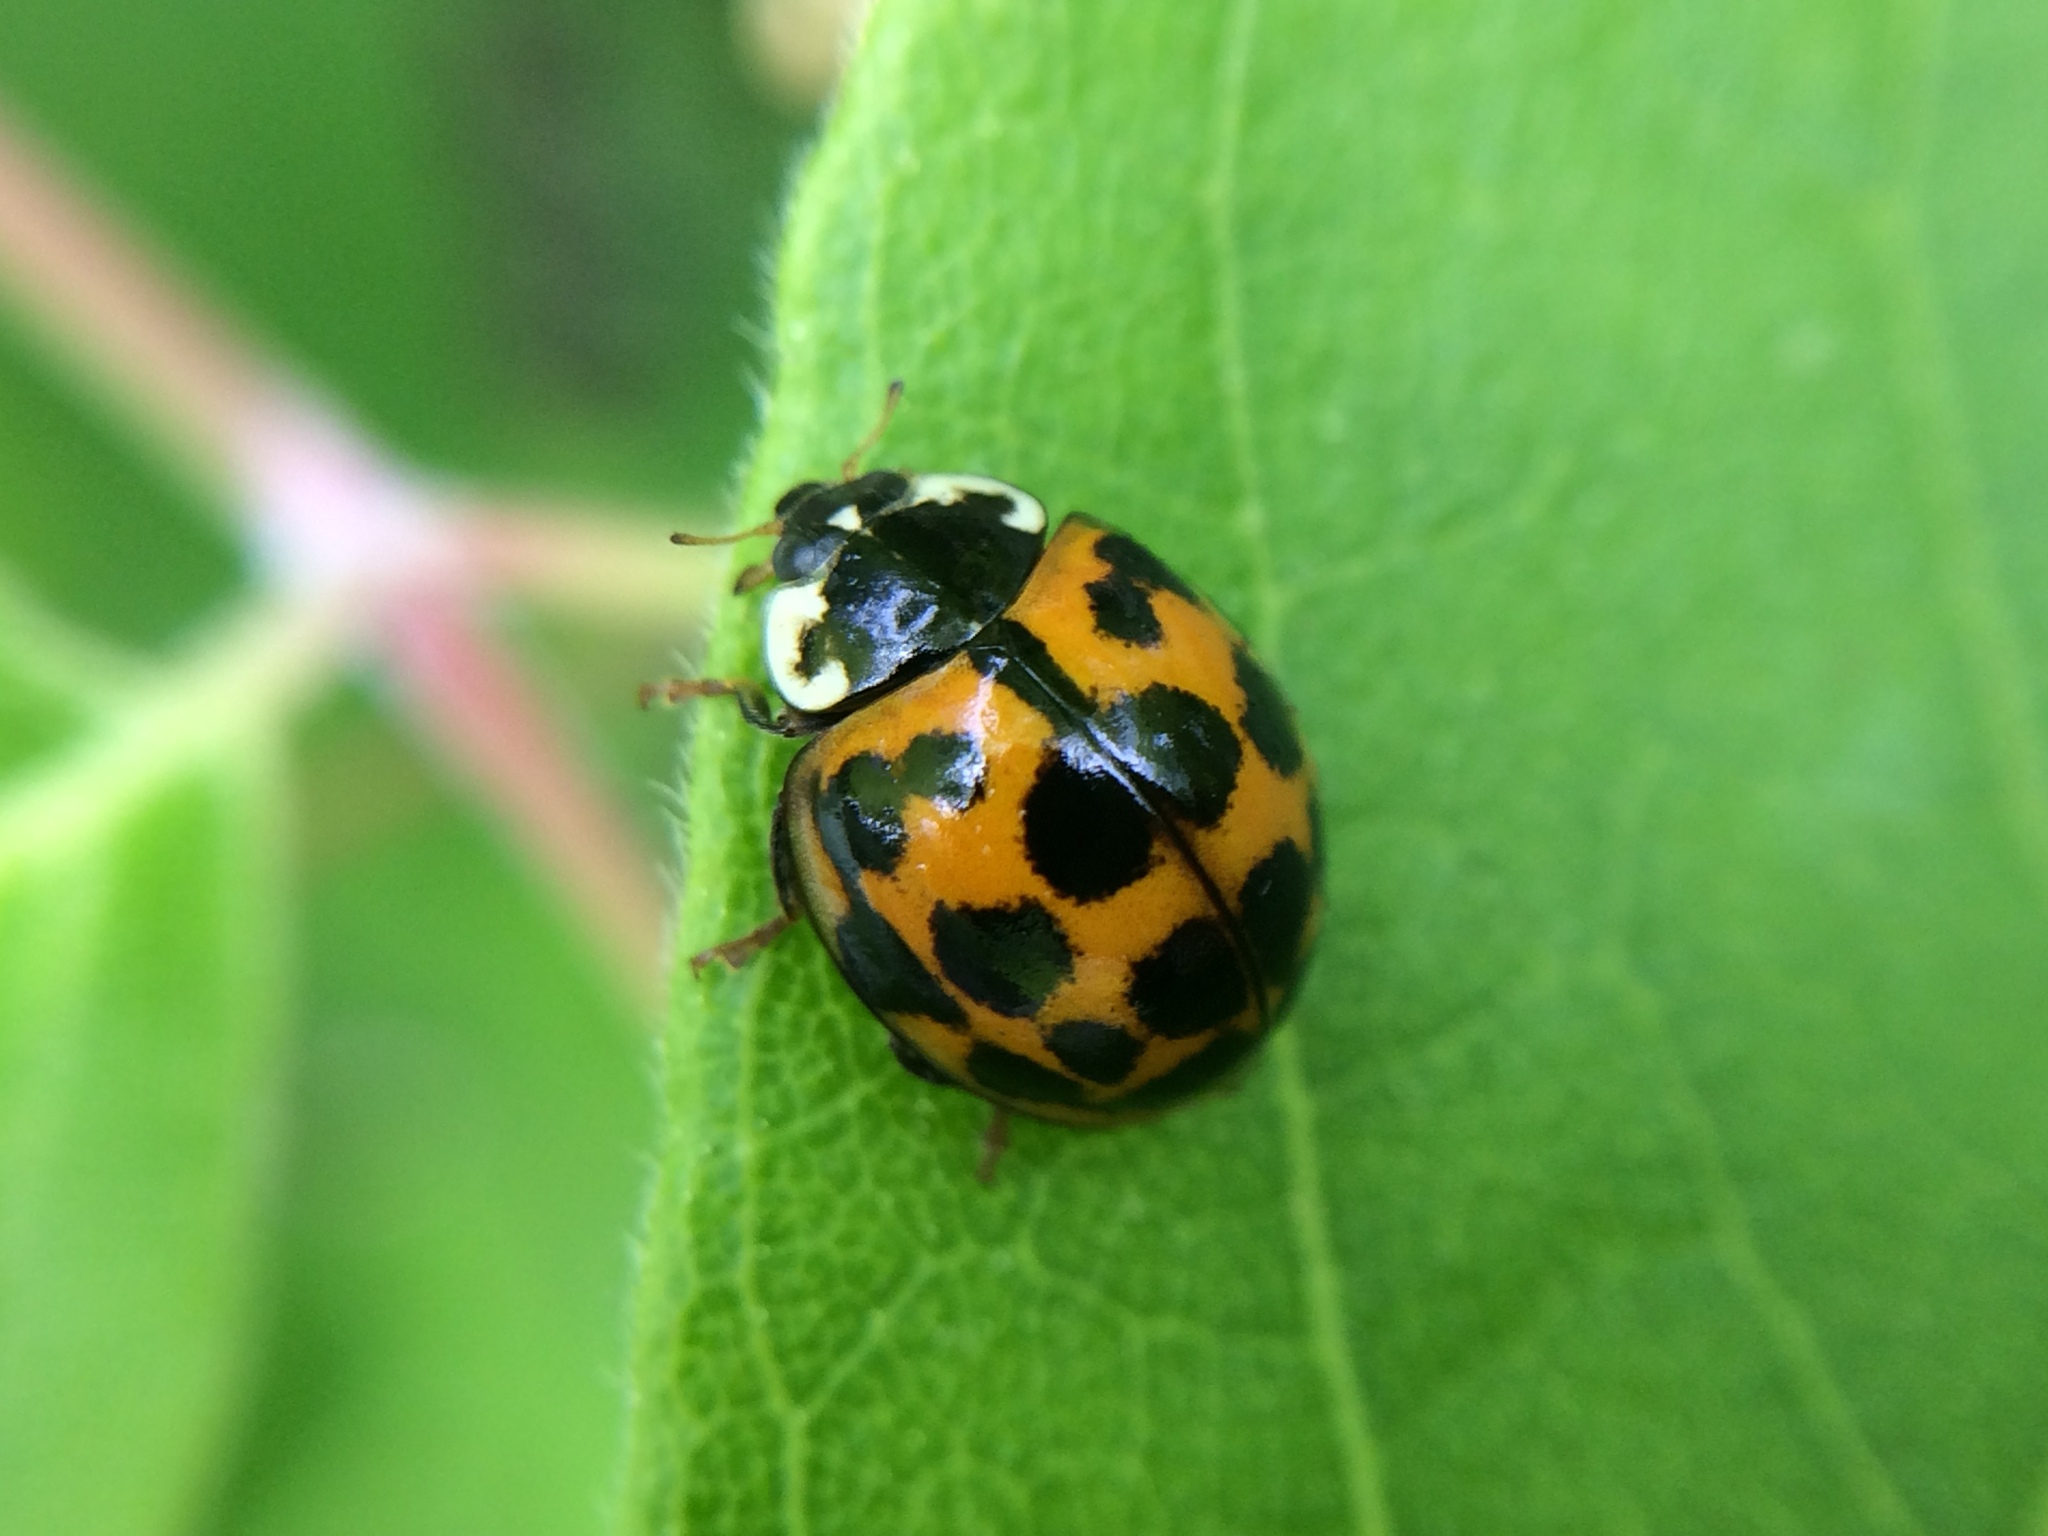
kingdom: Animalia
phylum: Arthropoda
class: Insecta
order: Coleoptera
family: Coccinellidae
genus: Harmonia
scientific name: Harmonia axyridis
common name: Harlequin ladybird
